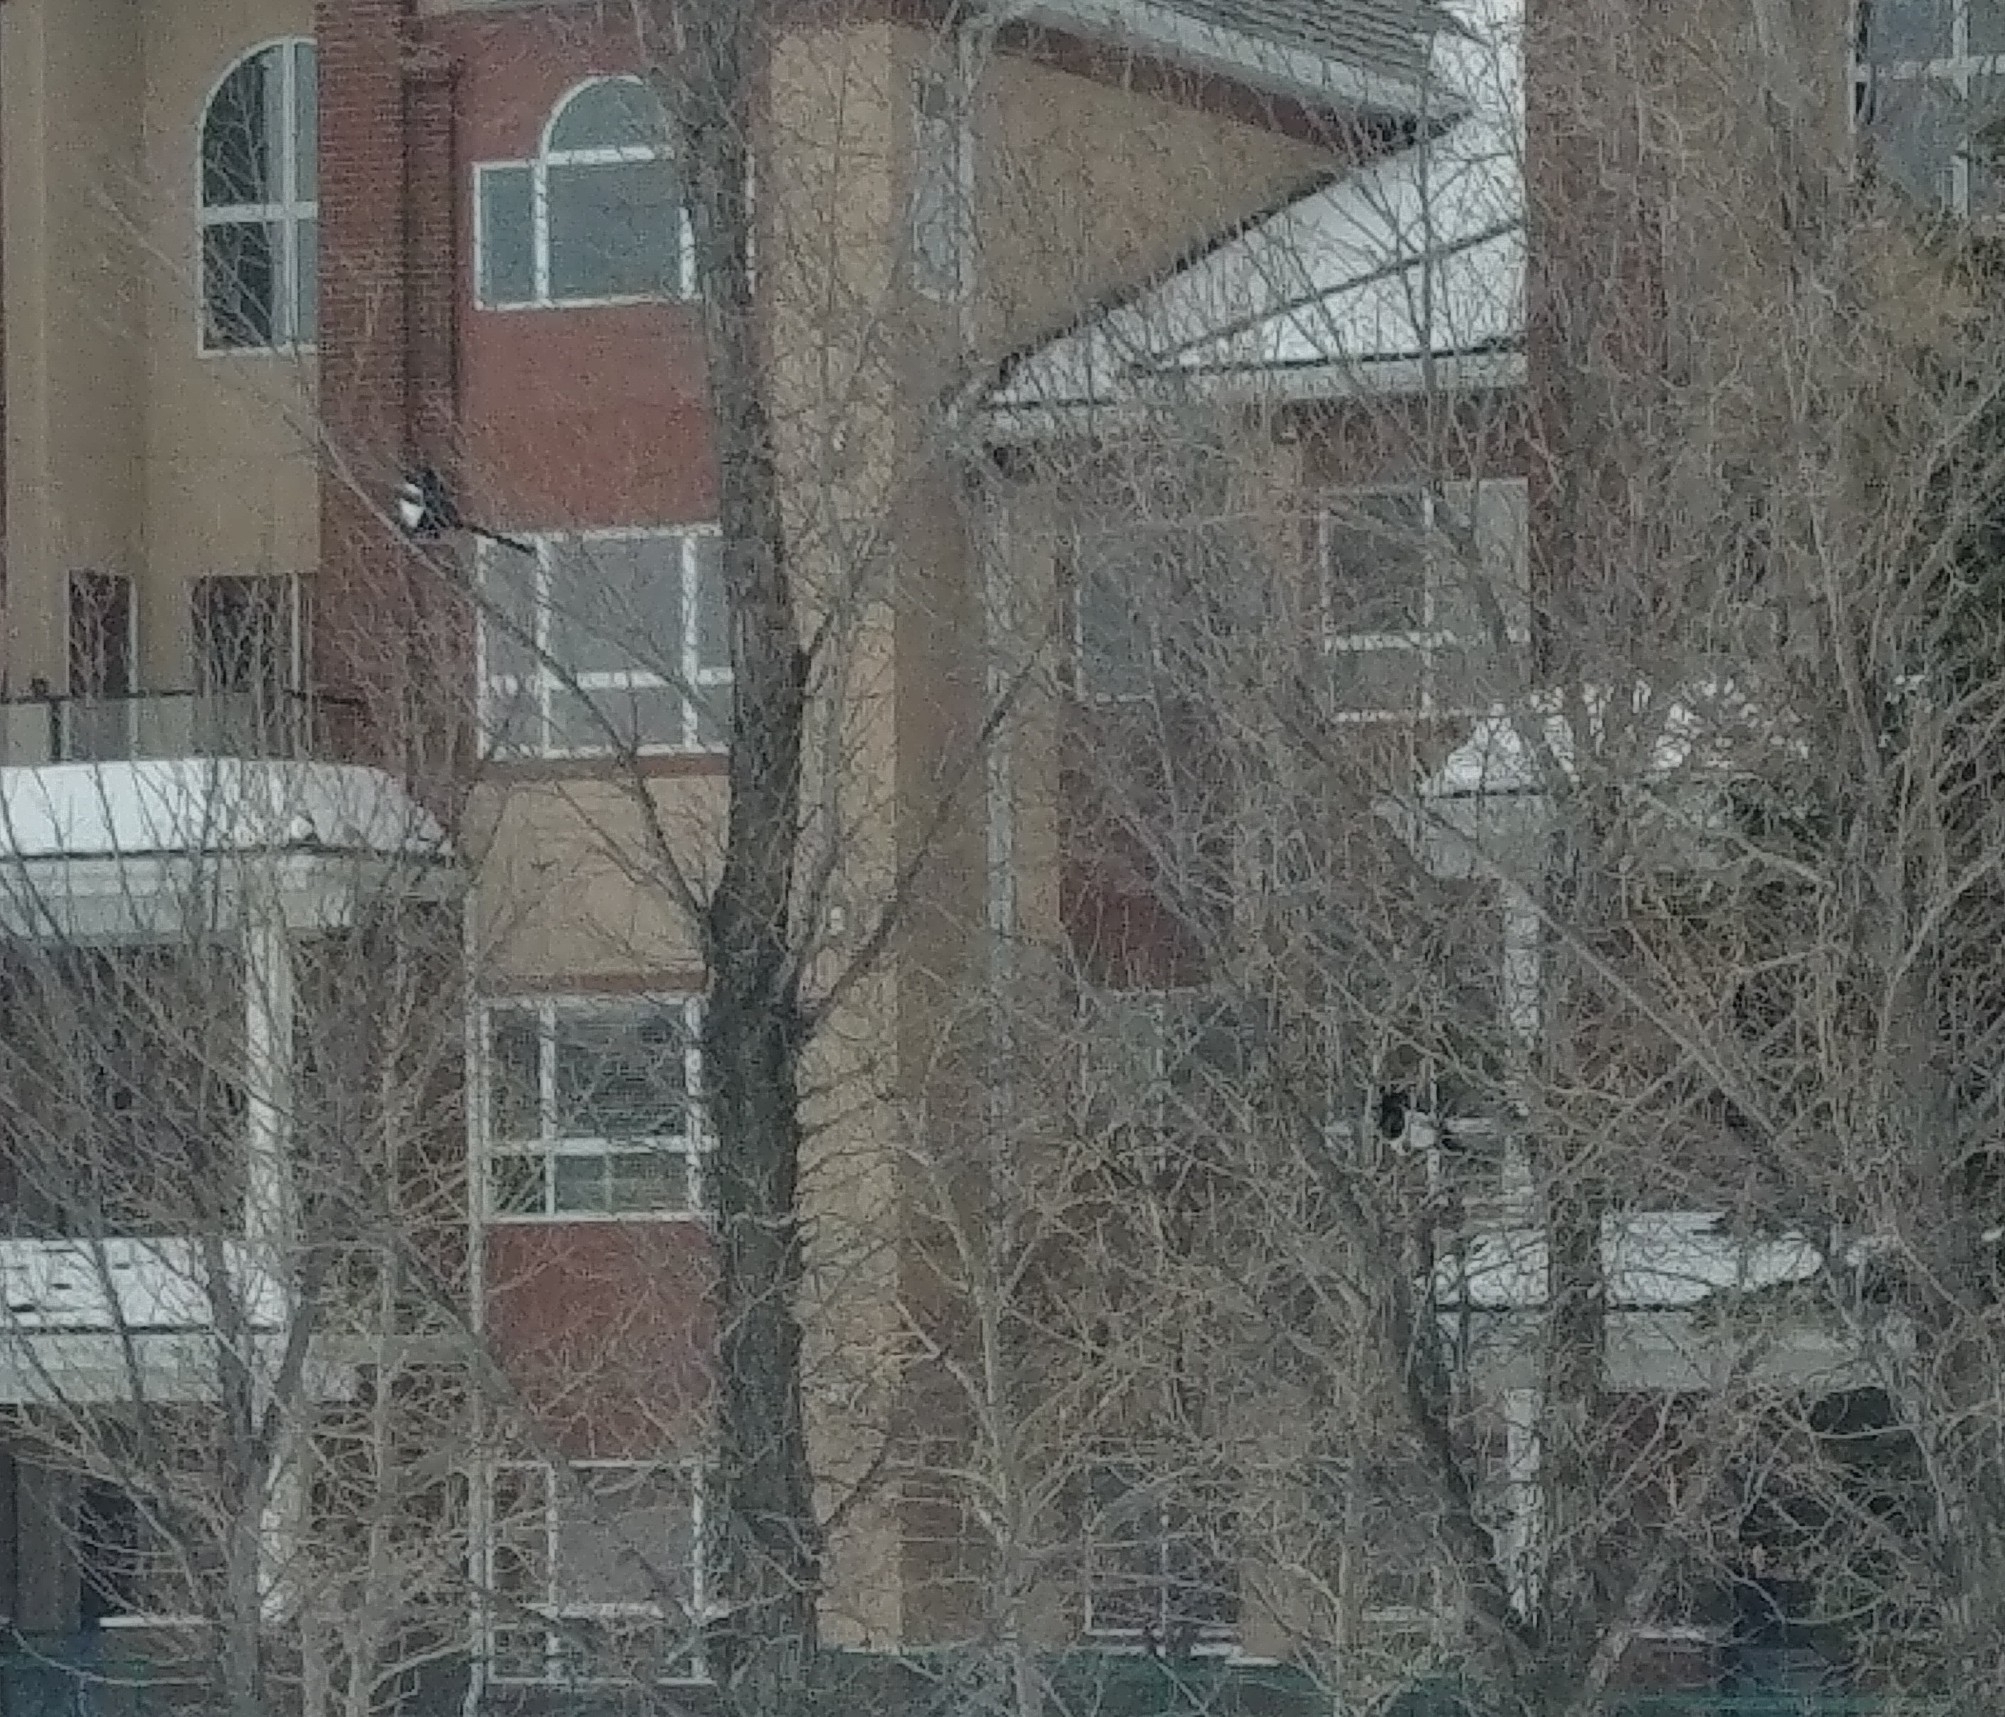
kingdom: Animalia
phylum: Chordata
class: Aves
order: Passeriformes
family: Corvidae
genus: Pica
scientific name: Pica hudsonia
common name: Black-billed magpie
